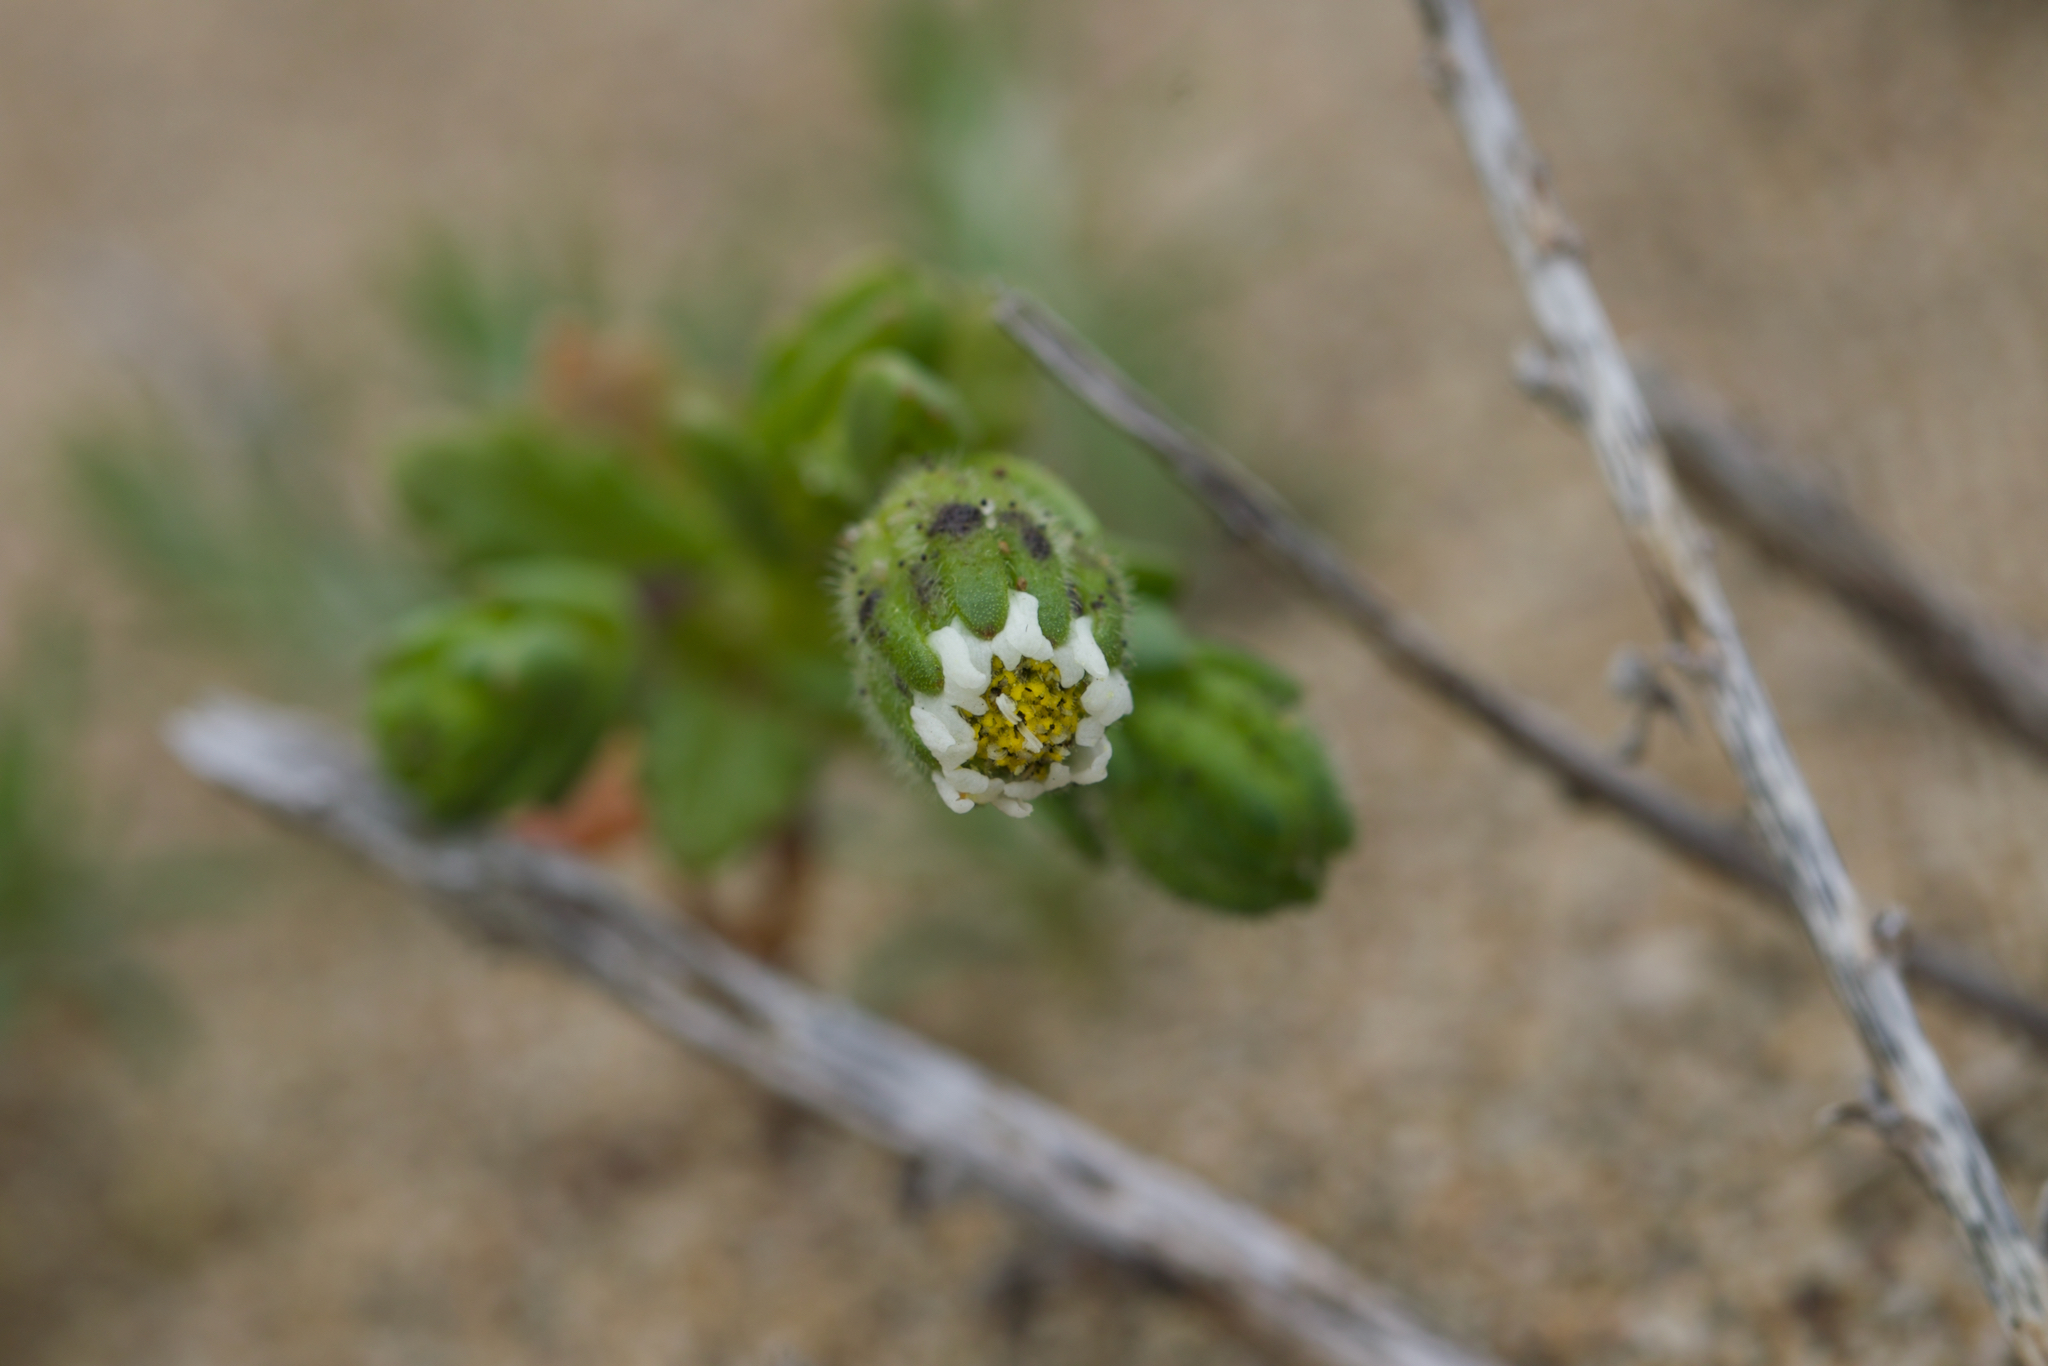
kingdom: Plantae
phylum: Tracheophyta
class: Magnoliopsida
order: Asterales
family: Asteraceae
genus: Layia
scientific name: Layia carnosa
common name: Beach layia
